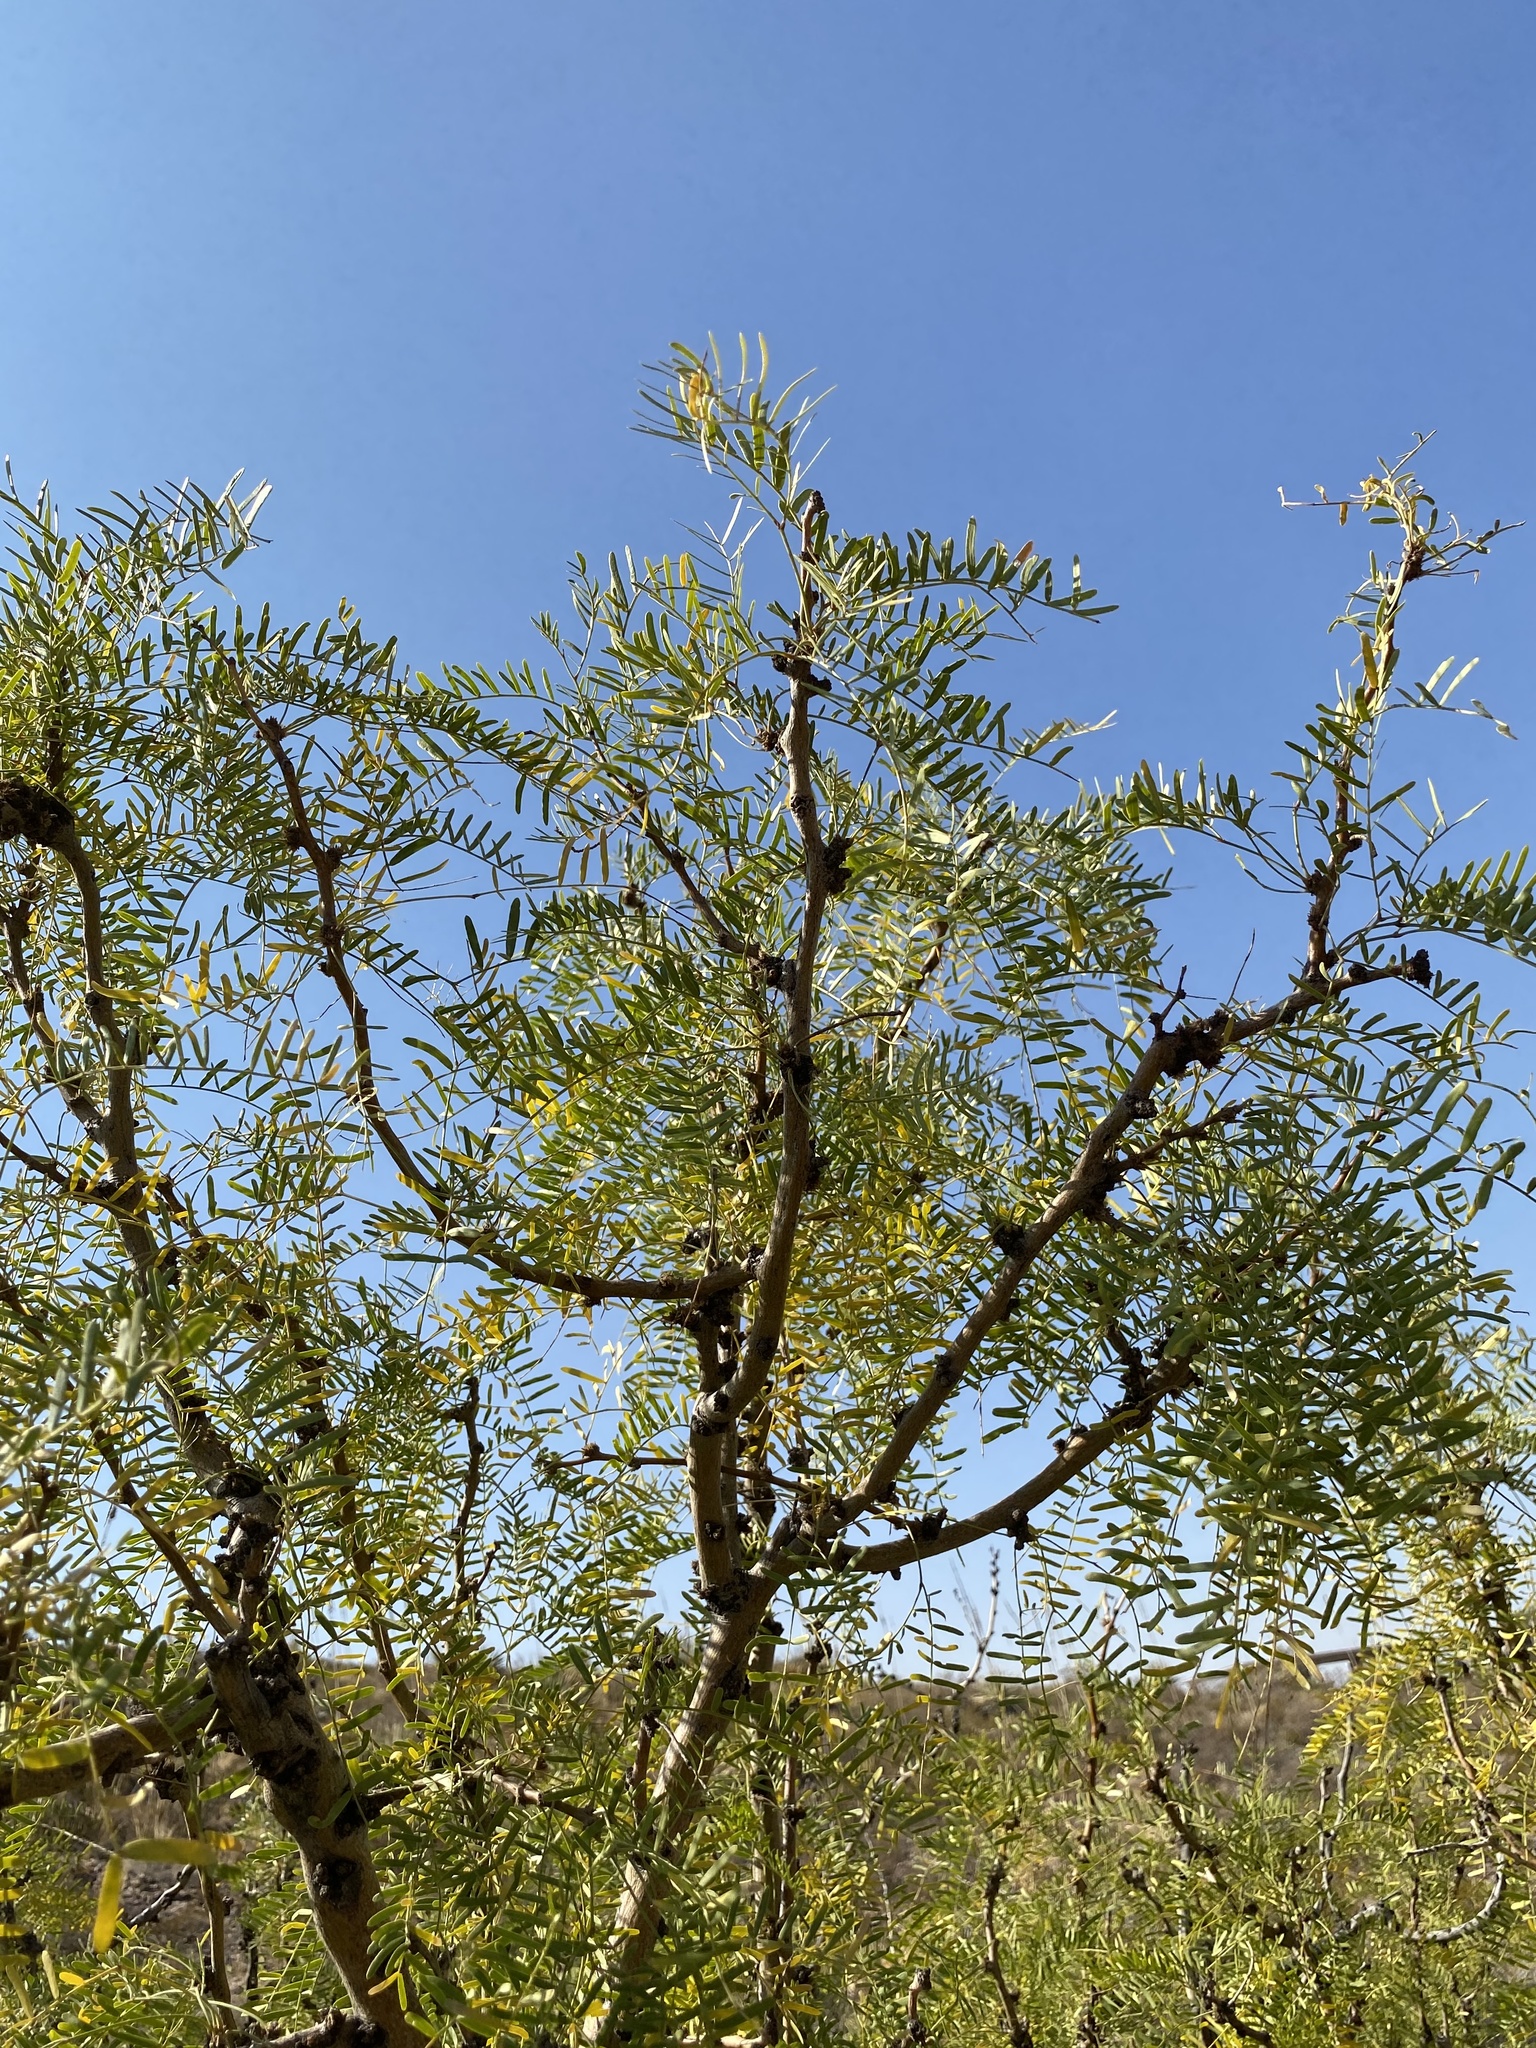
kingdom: Plantae
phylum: Tracheophyta
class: Magnoliopsida
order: Fabales
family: Fabaceae
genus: Prosopis
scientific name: Prosopis glandulosa
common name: Honey mesquite
